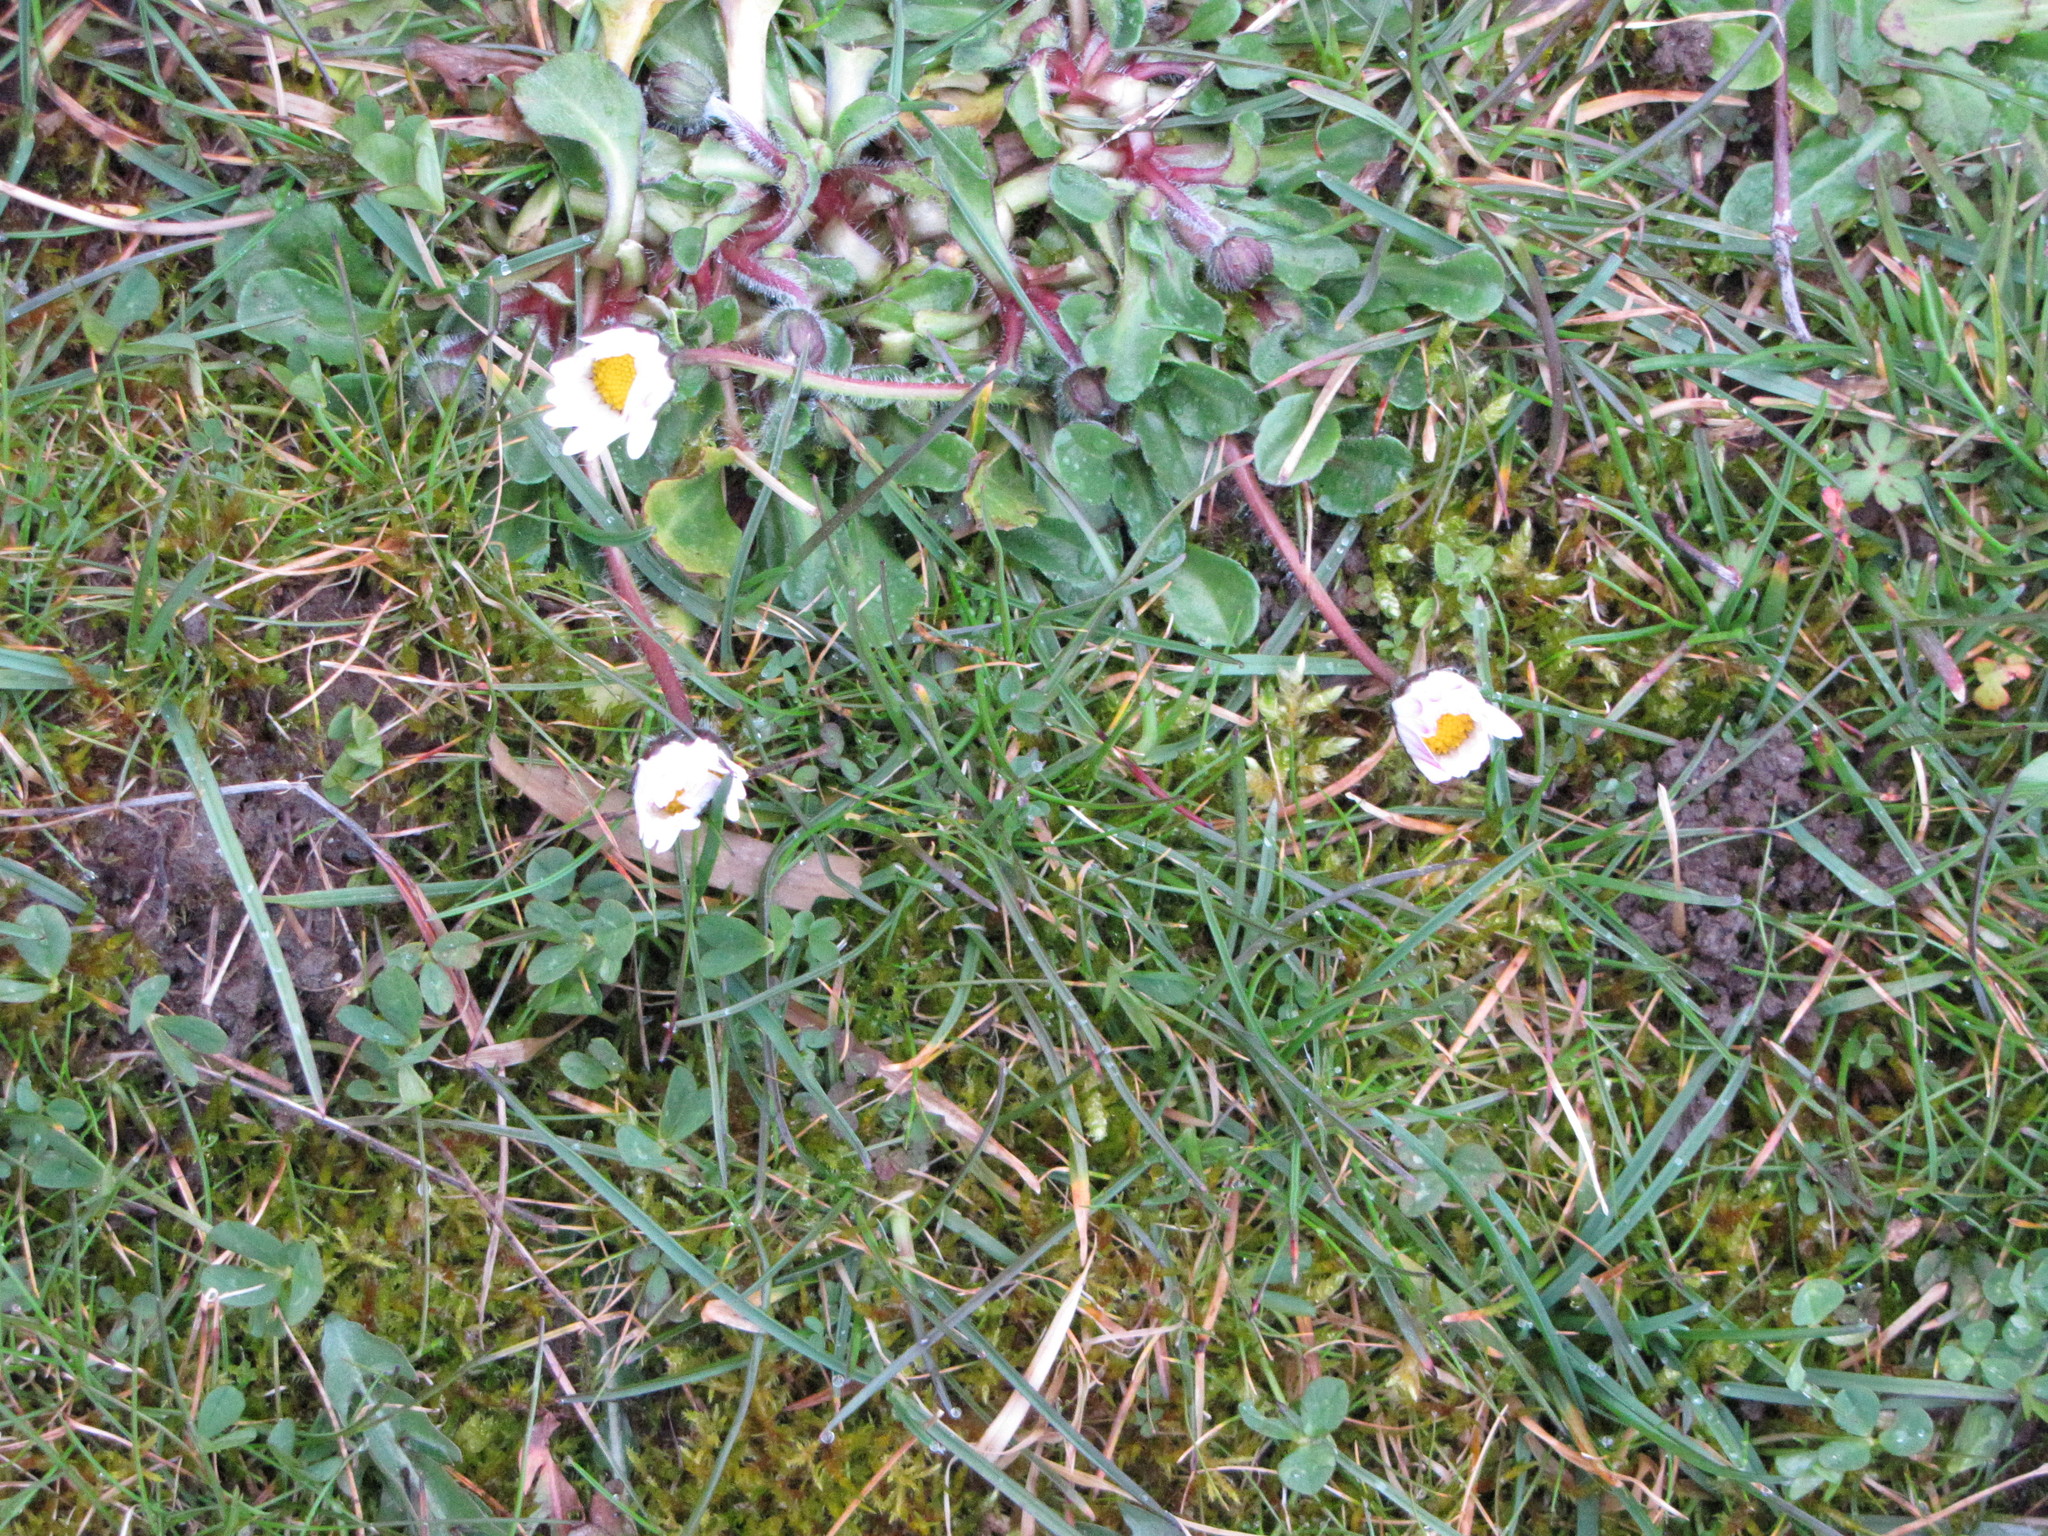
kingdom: Plantae
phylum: Tracheophyta
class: Magnoliopsida
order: Asterales
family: Asteraceae
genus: Bellis
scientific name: Bellis perennis
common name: Lawndaisy
